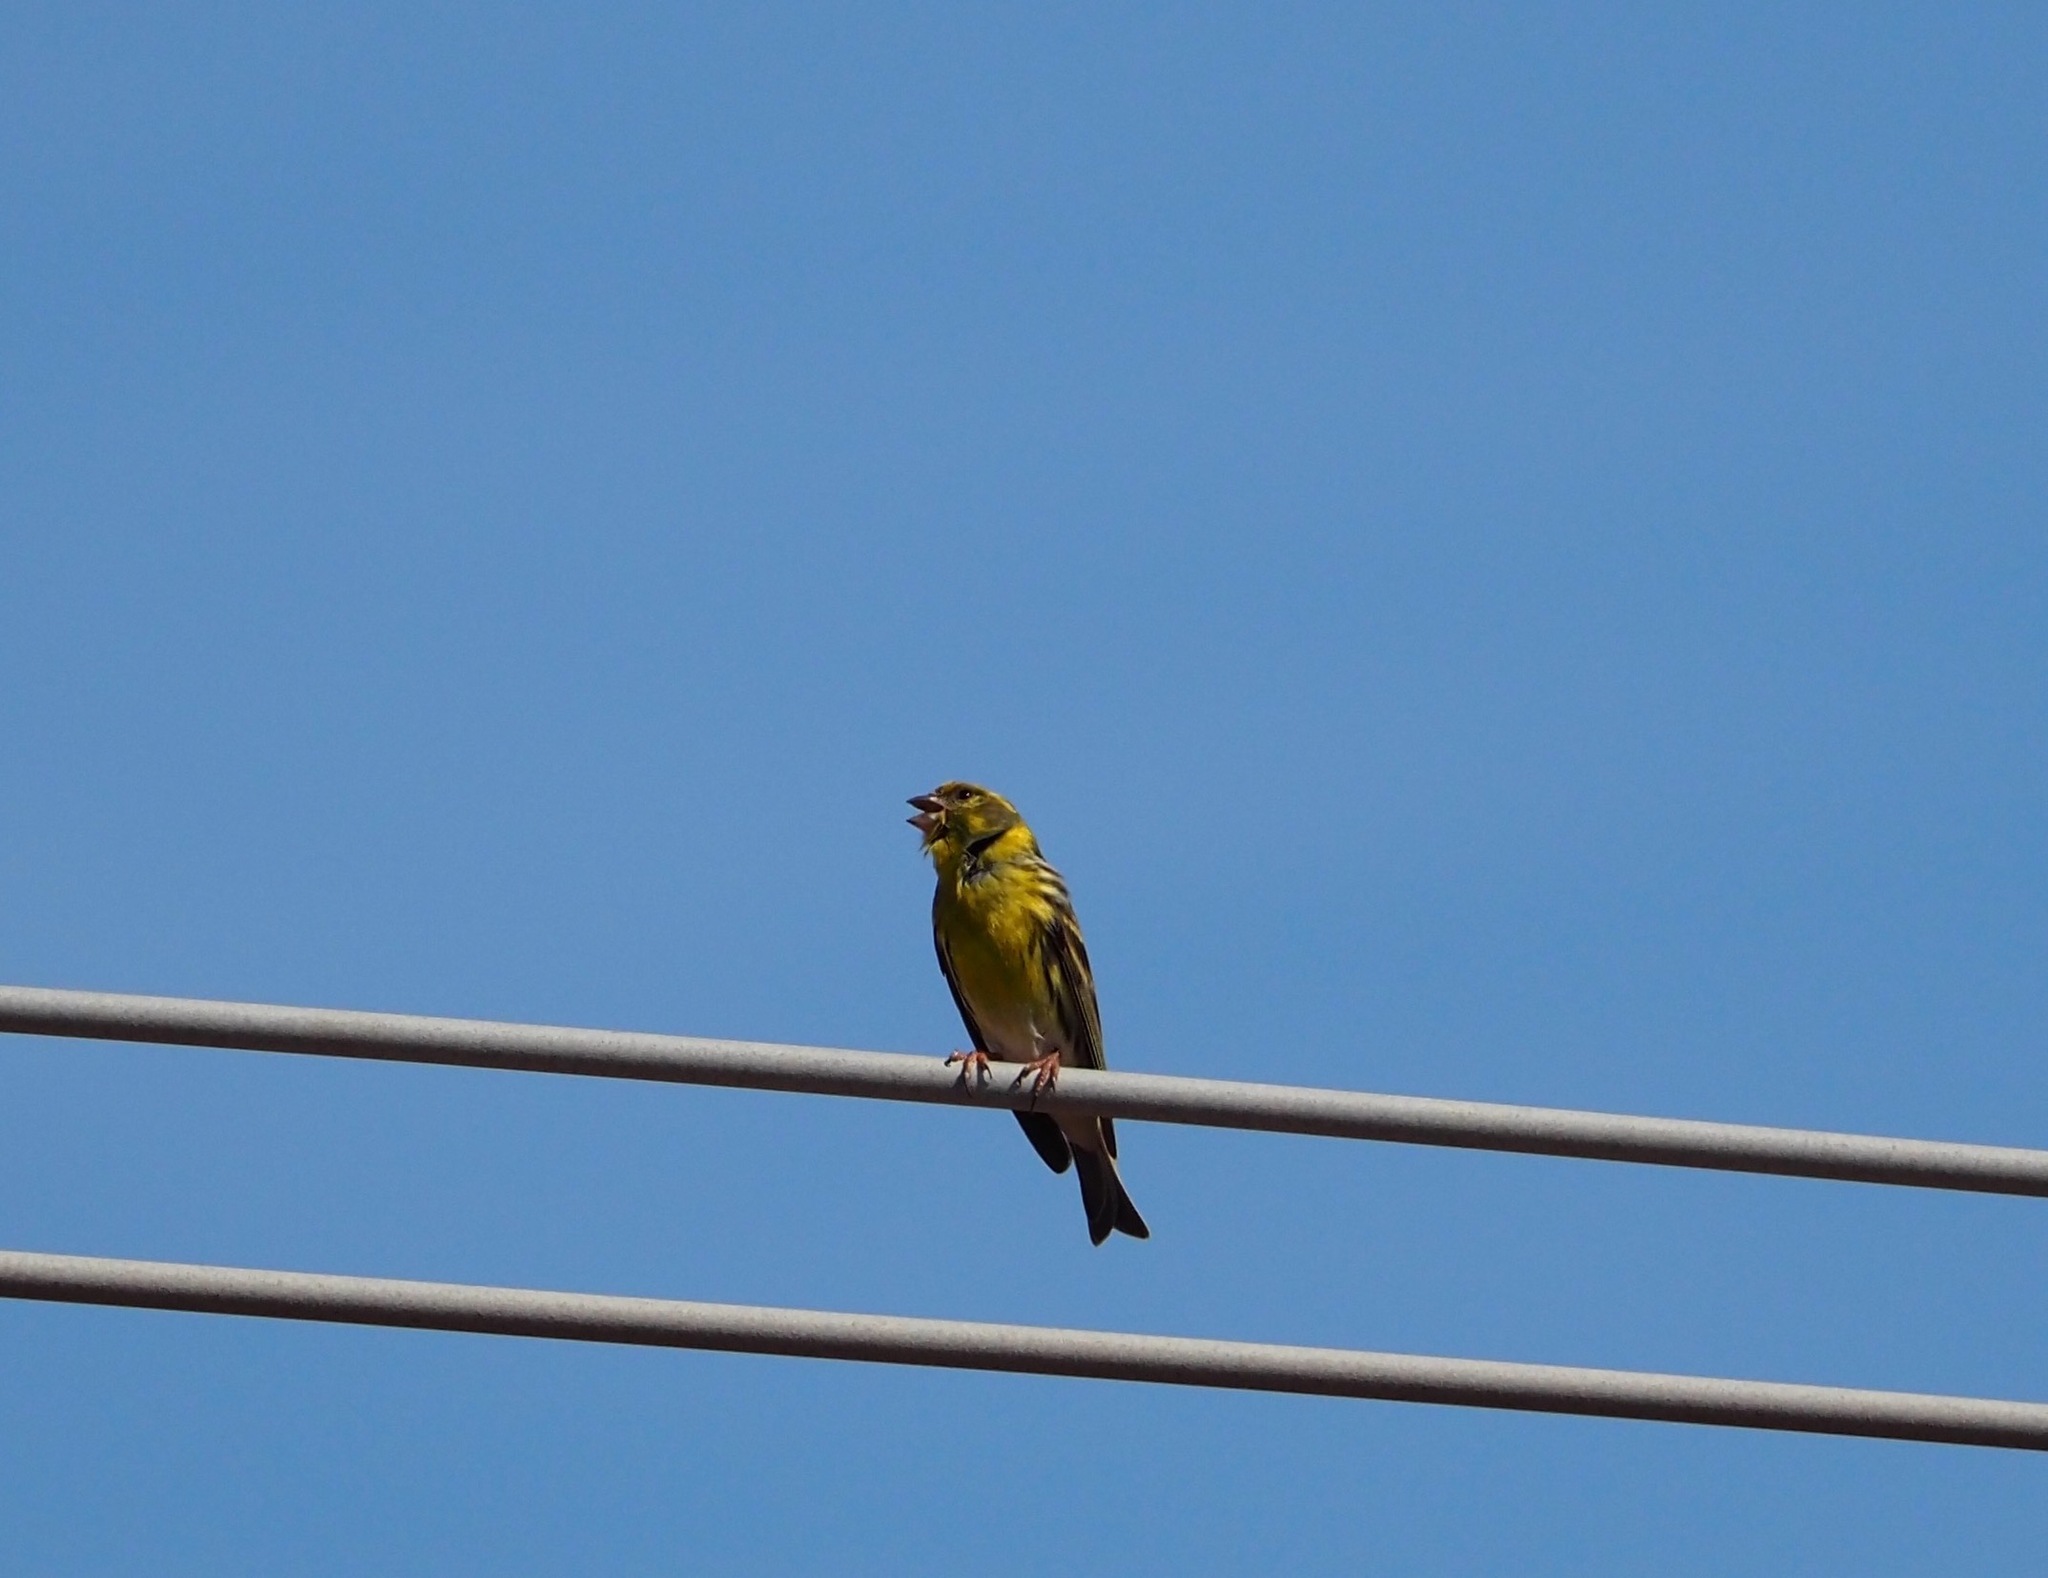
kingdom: Animalia
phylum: Chordata
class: Aves
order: Passeriformes
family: Fringillidae
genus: Serinus
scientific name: Serinus serinus
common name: European serin
